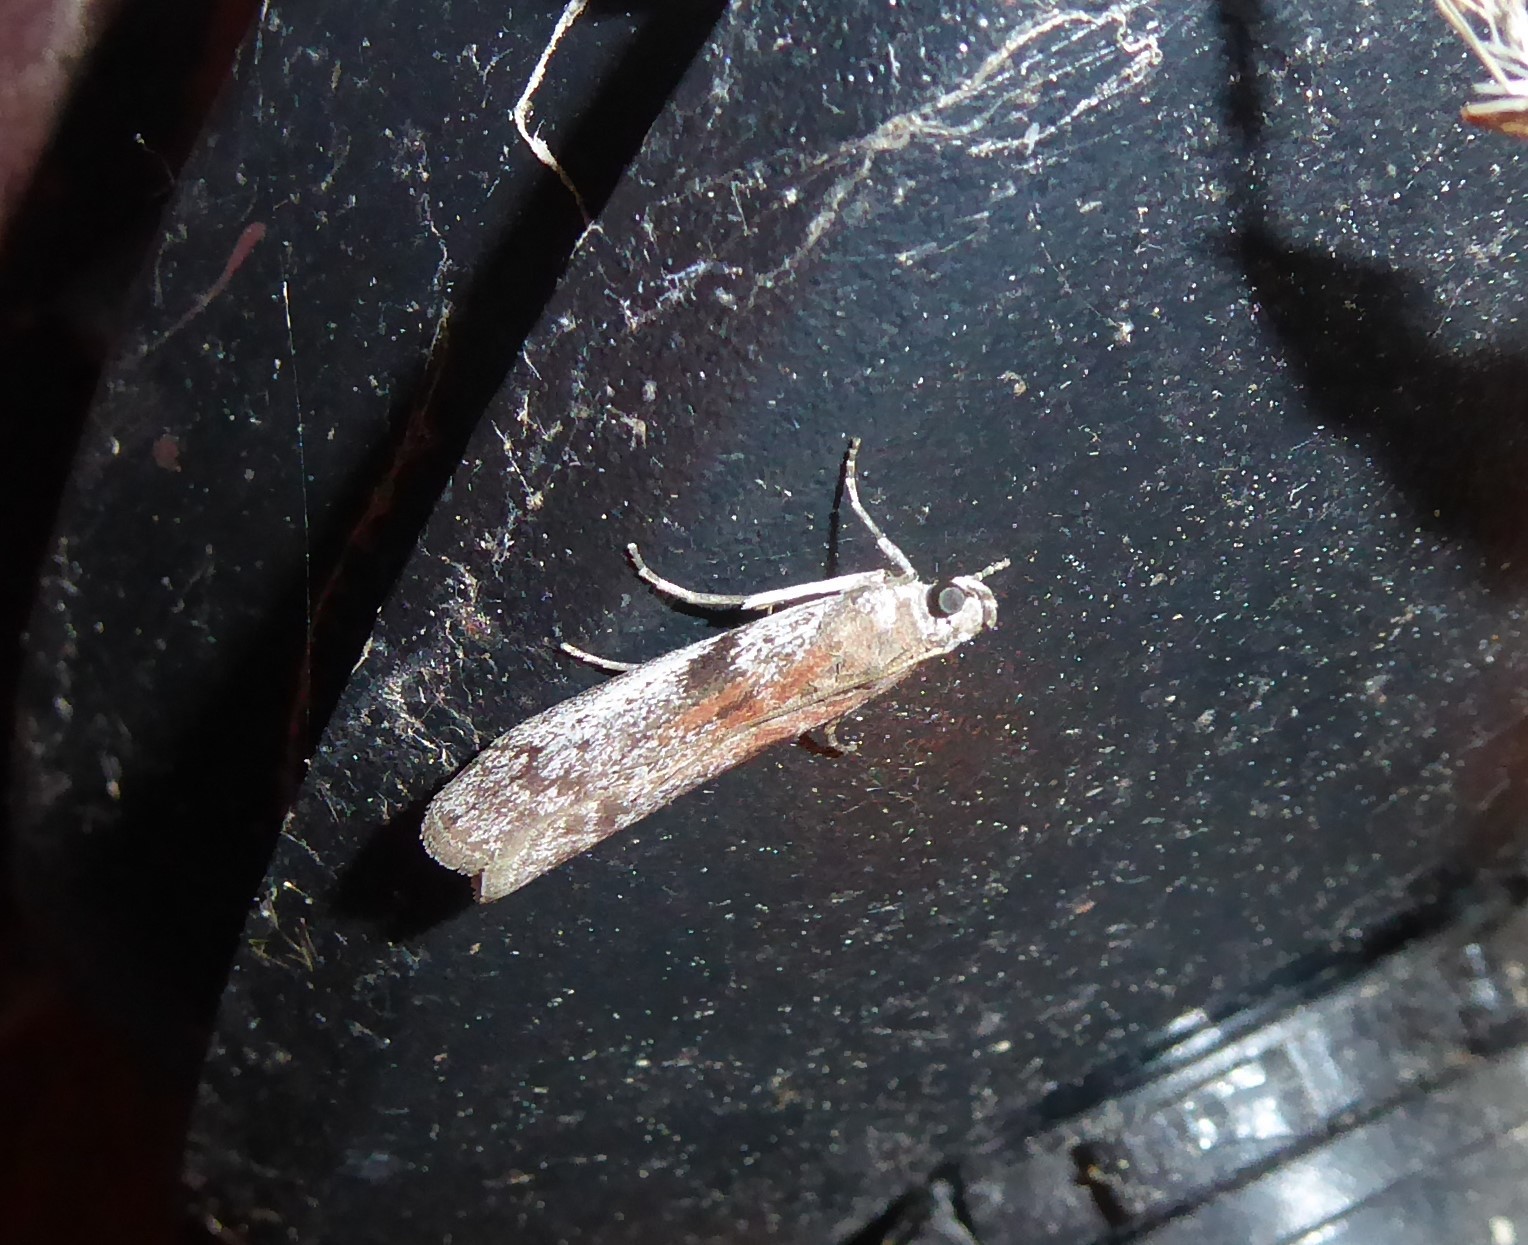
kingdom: Animalia
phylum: Arthropoda
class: Insecta
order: Lepidoptera
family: Pyralidae
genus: Patagoniodes
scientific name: Patagoniodes farinaria
